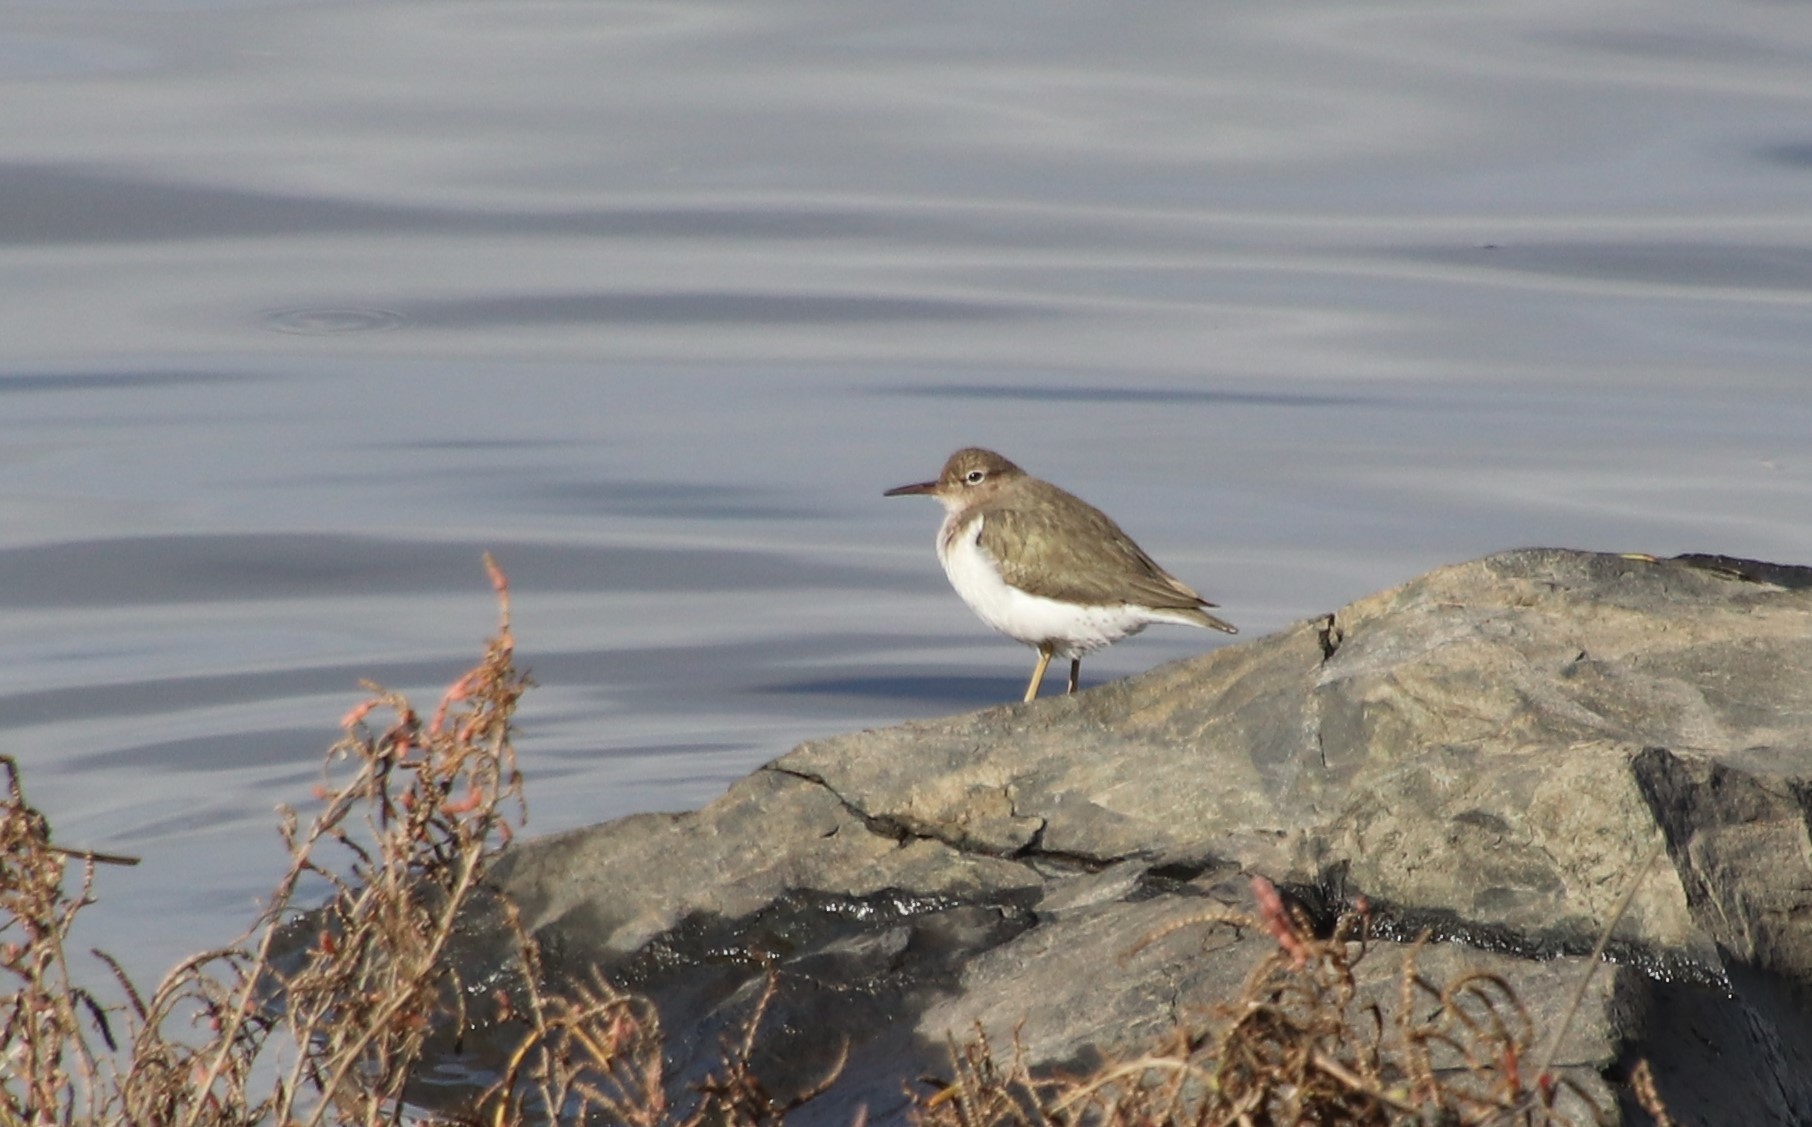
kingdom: Animalia
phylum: Chordata
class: Aves
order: Charadriiformes
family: Scolopacidae
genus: Actitis
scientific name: Actitis macularius
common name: Spotted sandpiper
